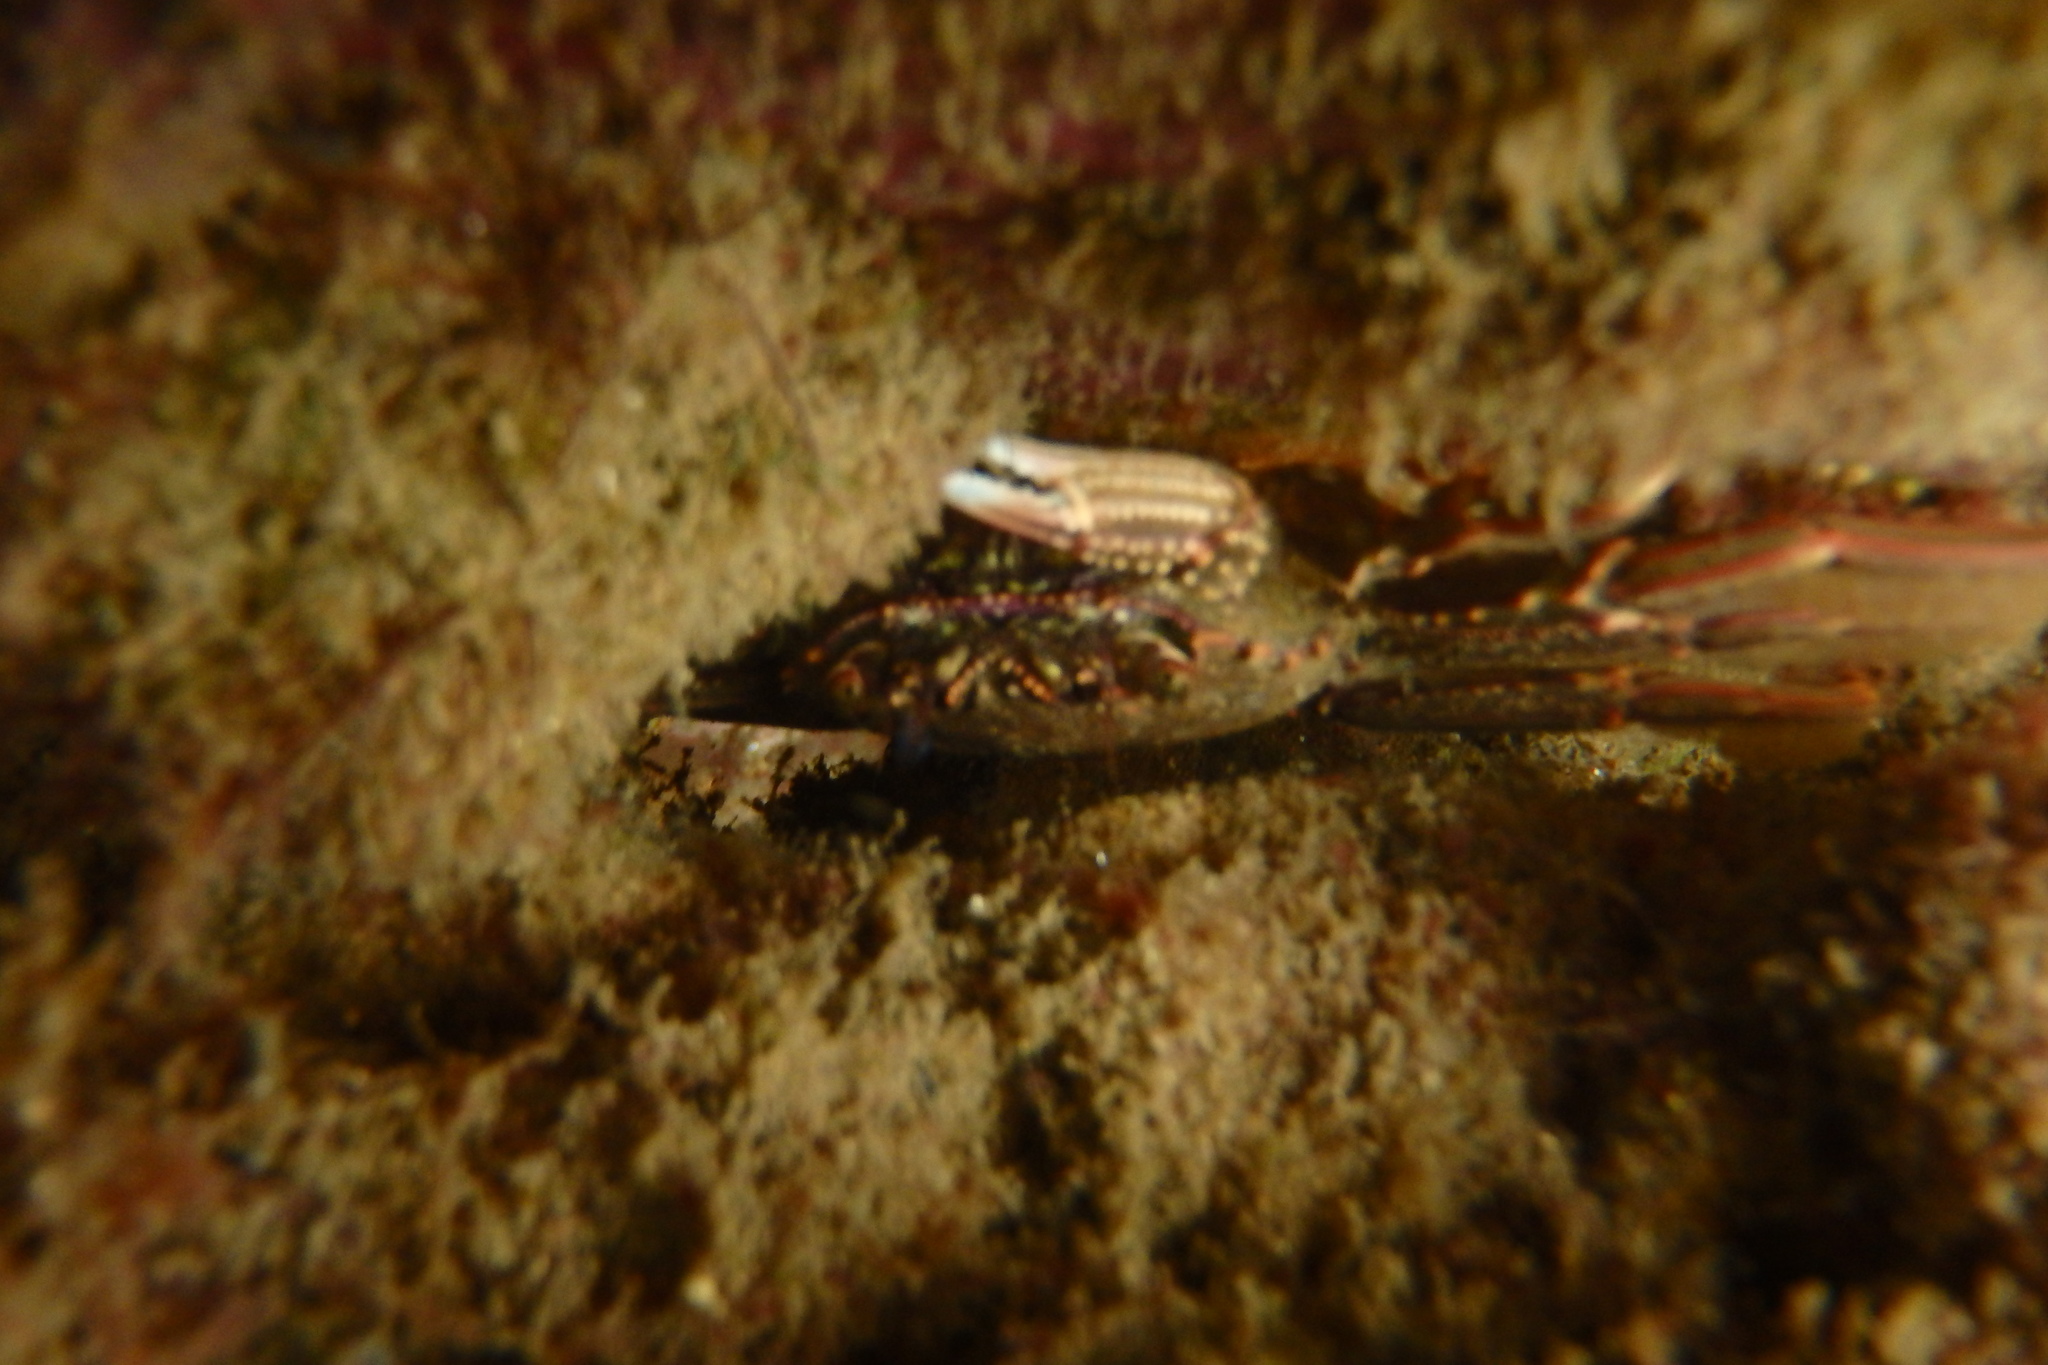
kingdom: Animalia
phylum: Arthropoda
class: Malacostraca
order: Decapoda
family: Plagusiidae
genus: Guinusia
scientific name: Guinusia chabrus
